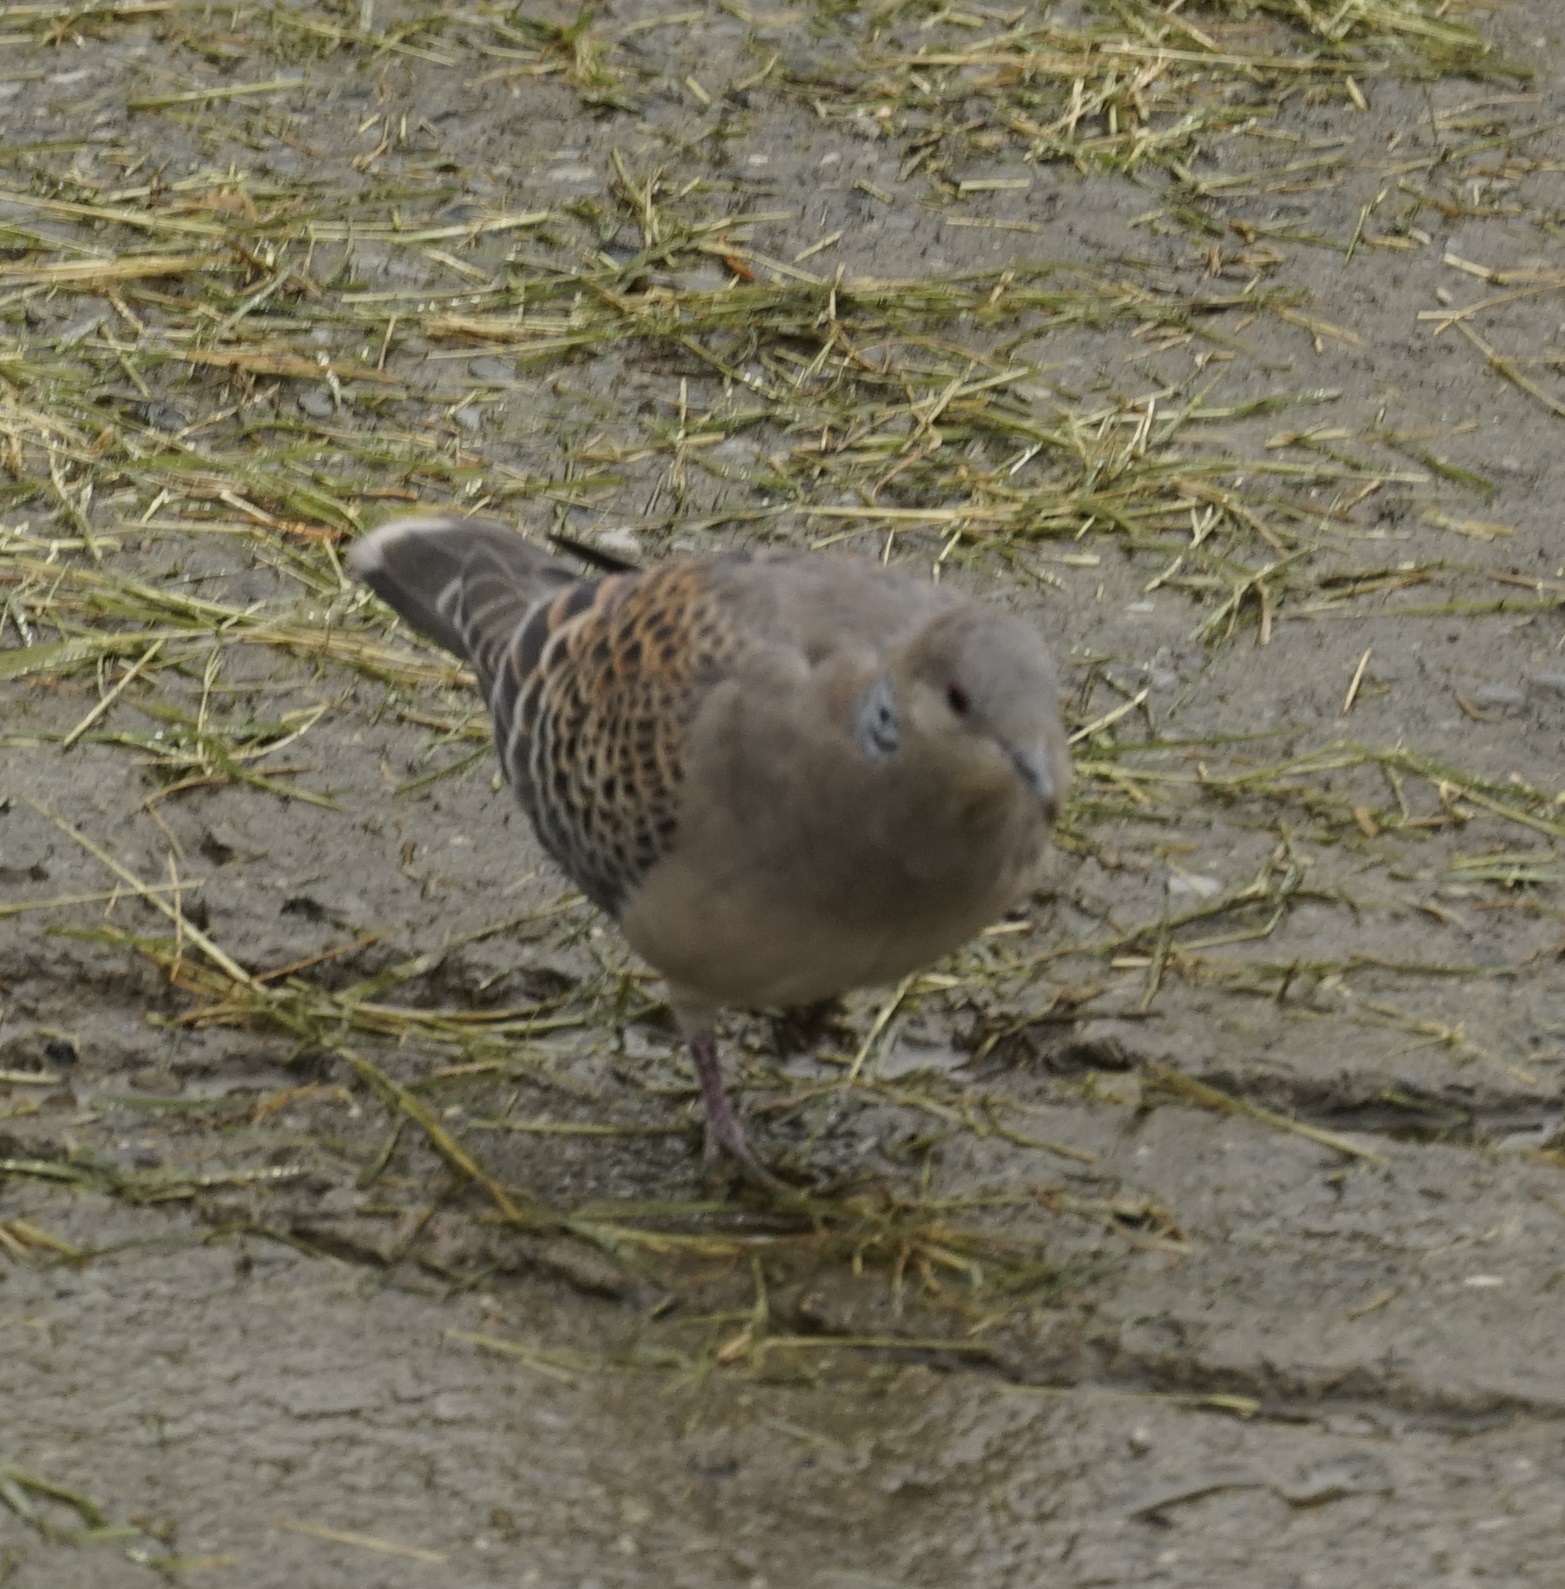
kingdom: Animalia
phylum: Chordata
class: Aves
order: Columbiformes
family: Columbidae
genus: Streptopelia
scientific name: Streptopelia orientalis
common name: Oriental turtle dove
